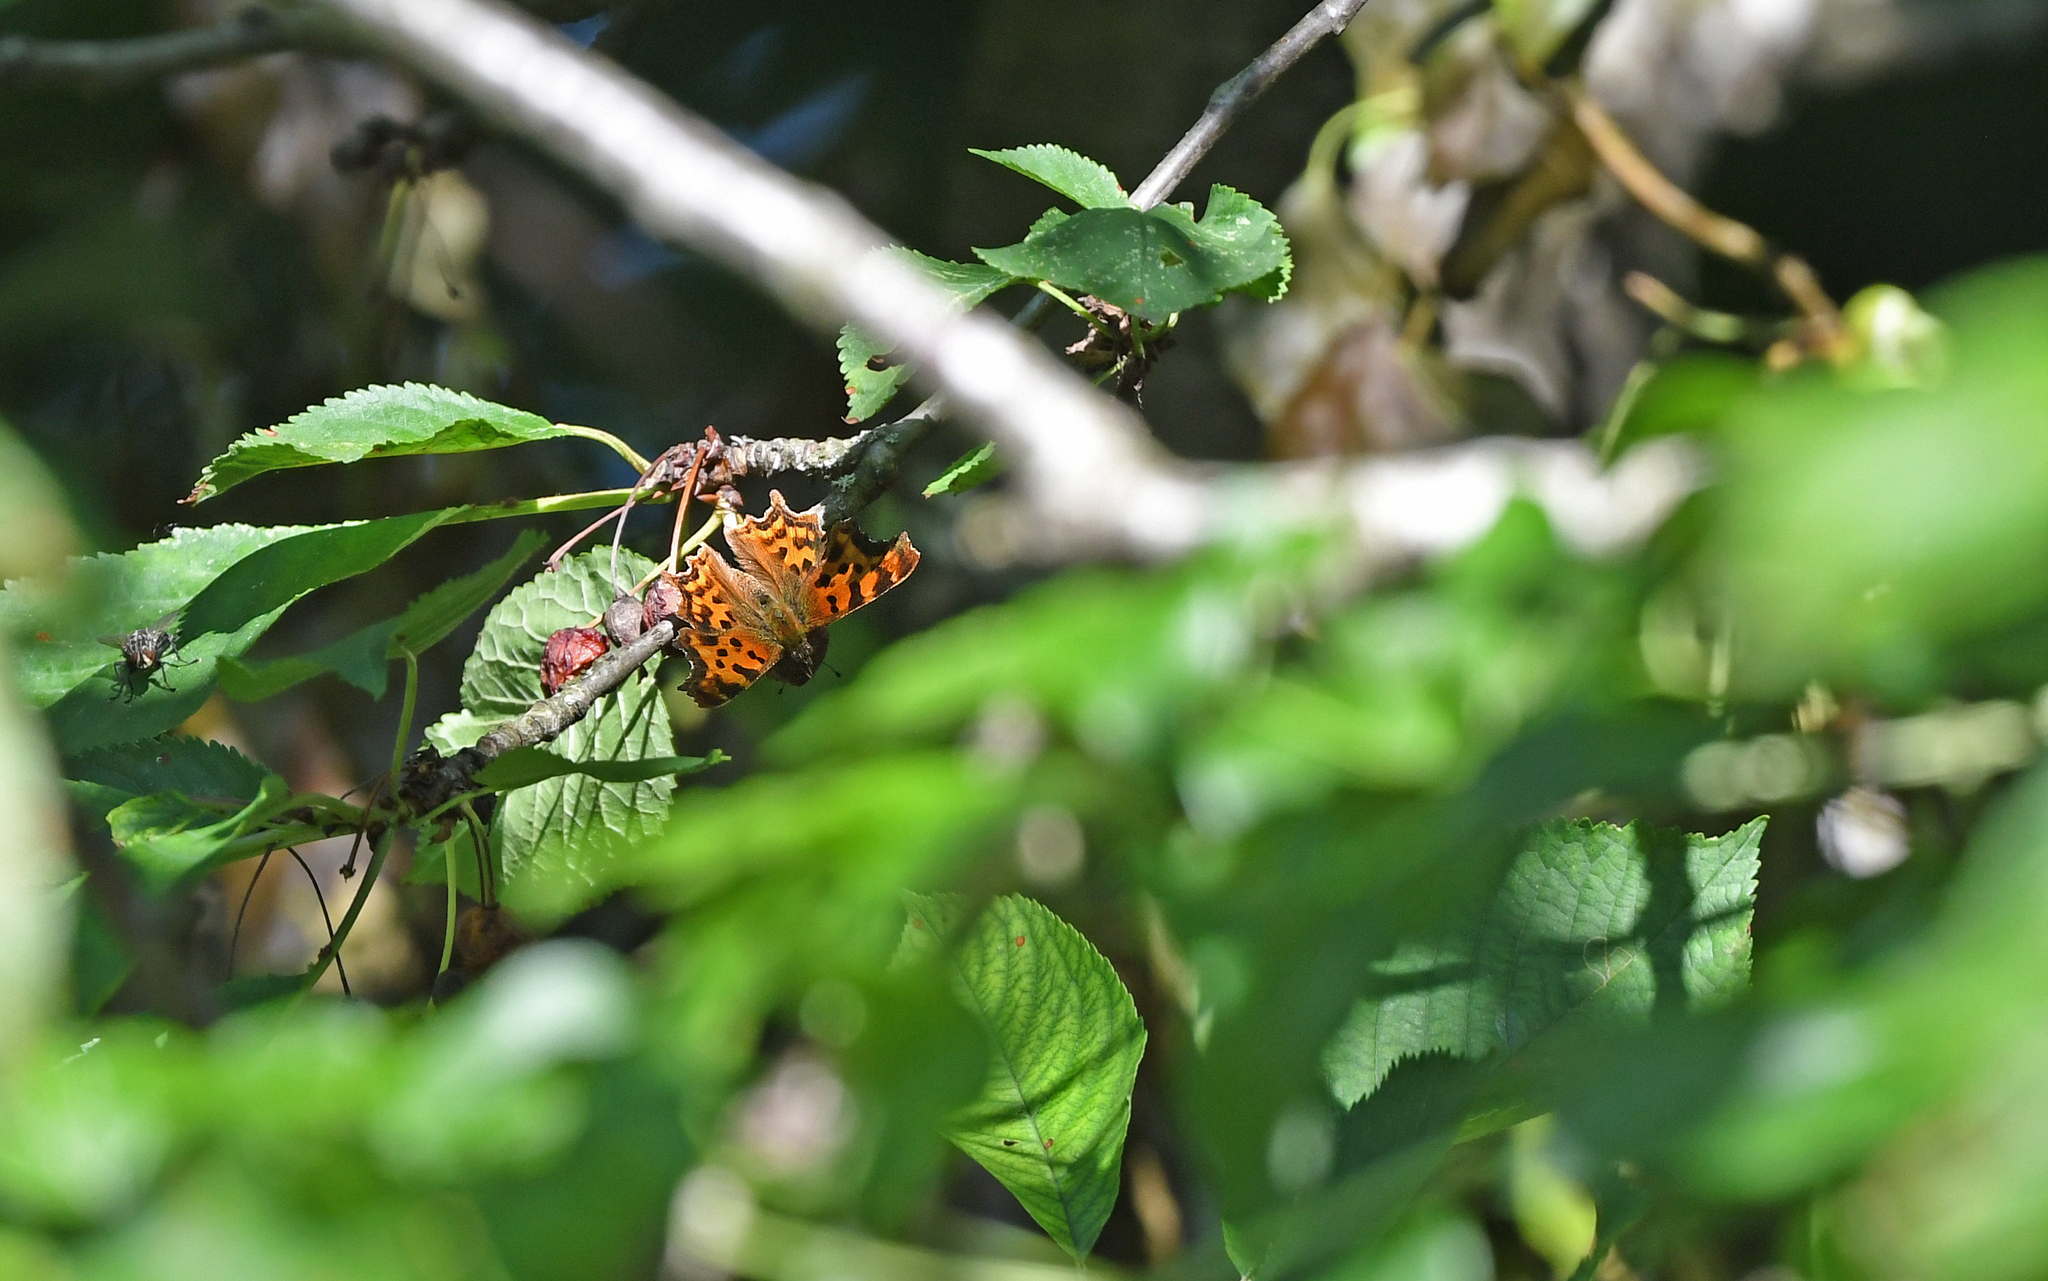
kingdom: Animalia
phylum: Arthropoda
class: Insecta
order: Lepidoptera
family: Nymphalidae
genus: Polygonia
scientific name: Polygonia c-album
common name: Comma
